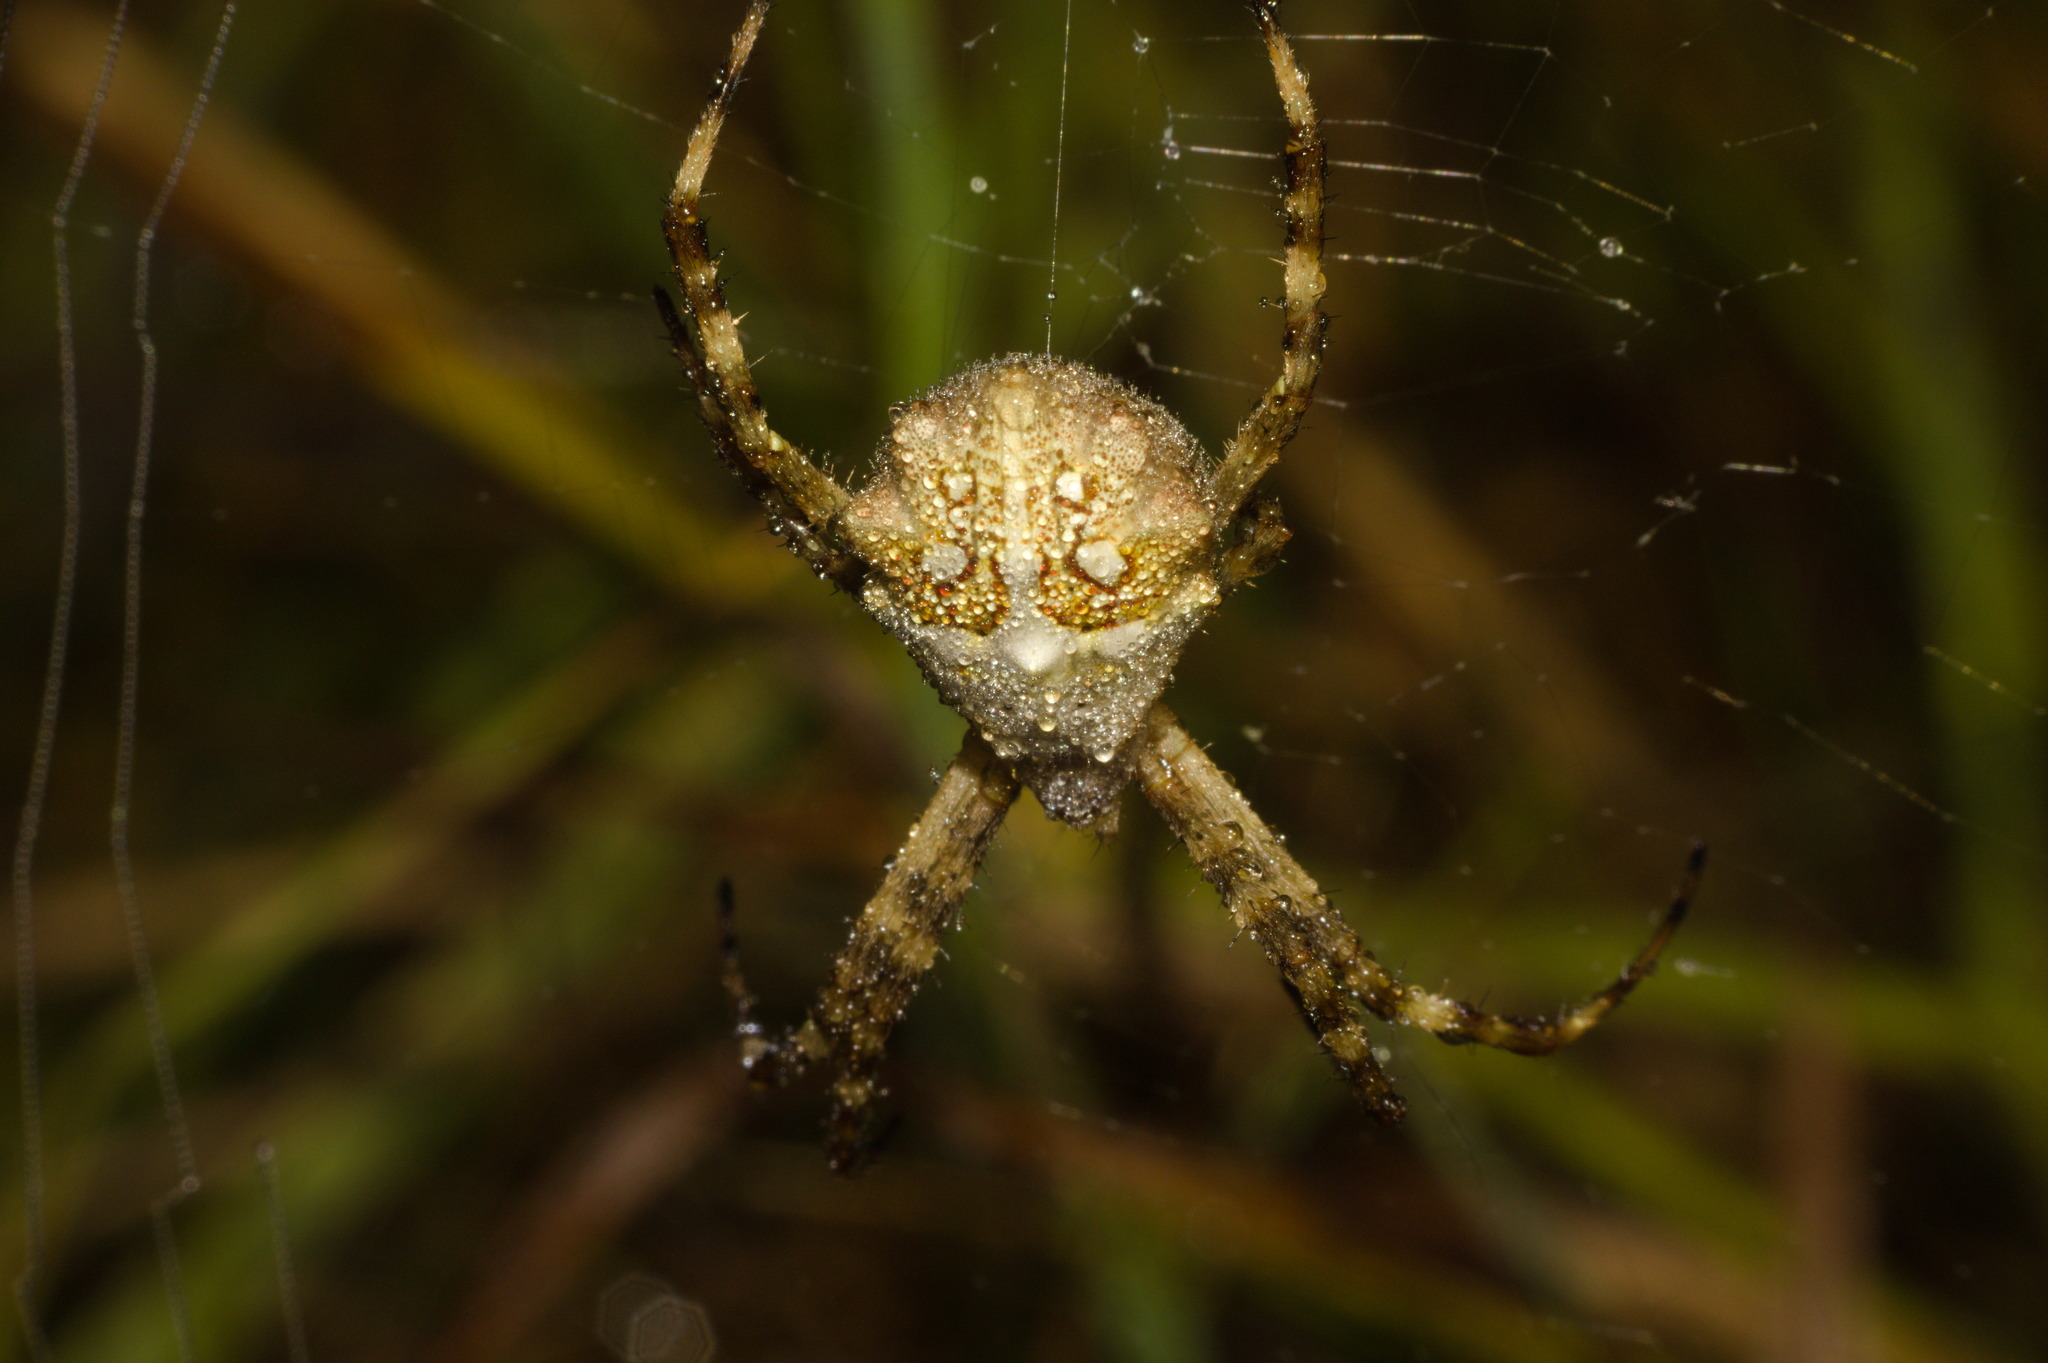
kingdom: Animalia
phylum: Arthropoda
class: Arachnida
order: Araneae
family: Araneidae
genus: Argiope
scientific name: Argiope argentata
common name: Orb weavers
